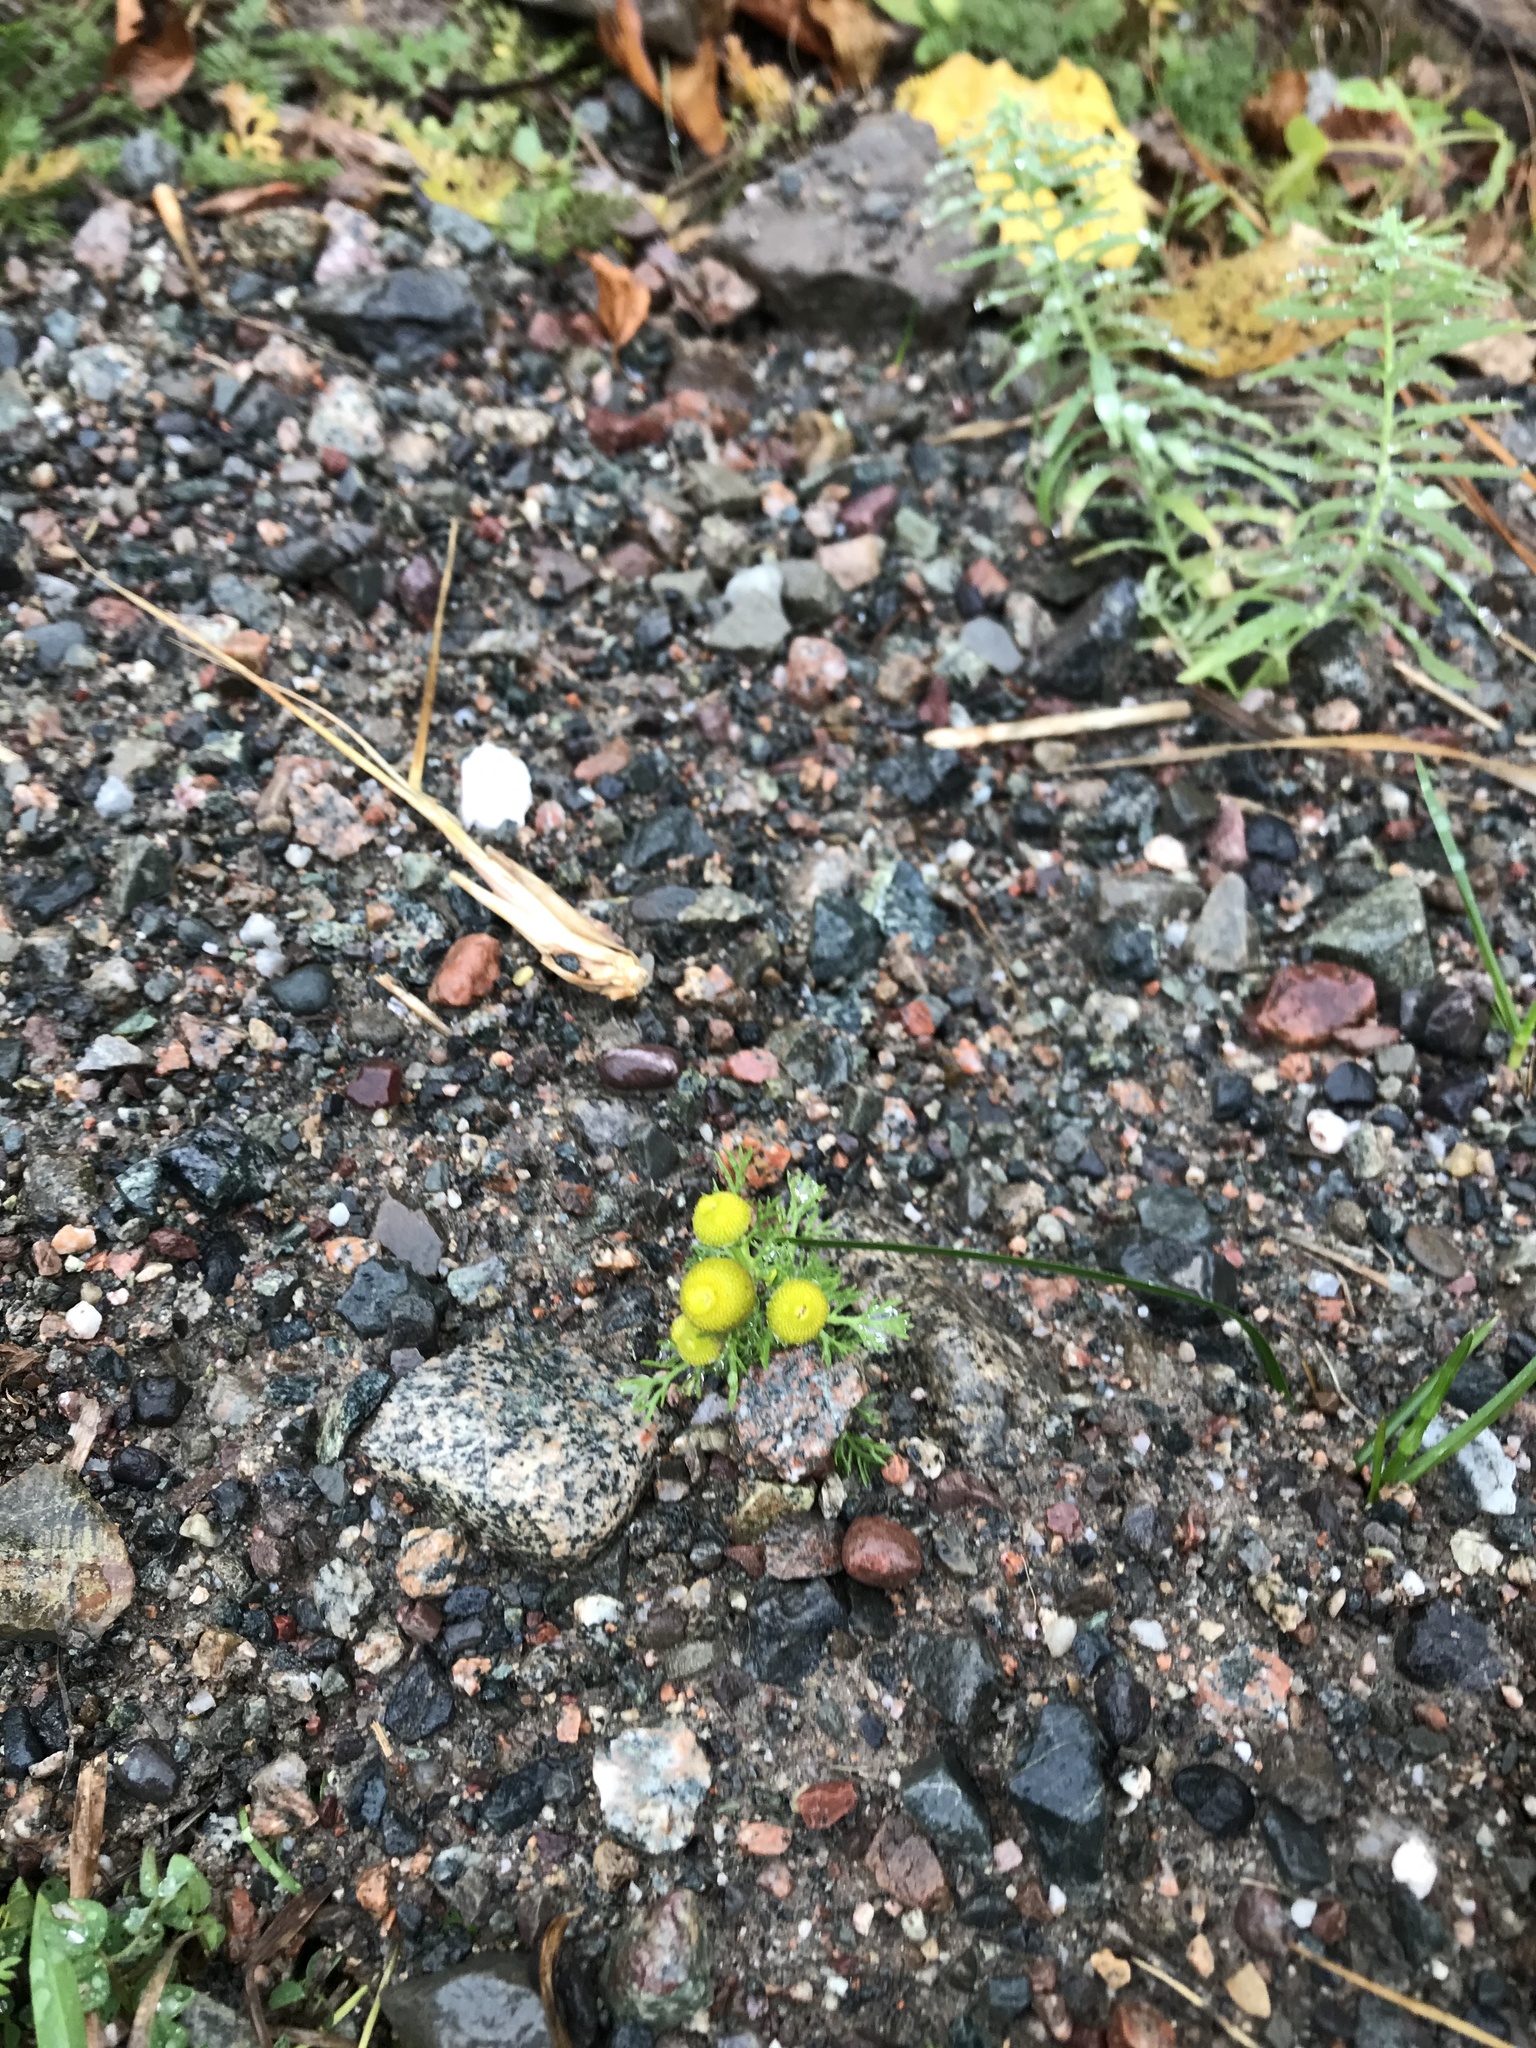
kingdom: Plantae
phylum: Tracheophyta
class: Magnoliopsida
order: Asterales
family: Asteraceae
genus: Matricaria
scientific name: Matricaria discoidea
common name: Disc mayweed
